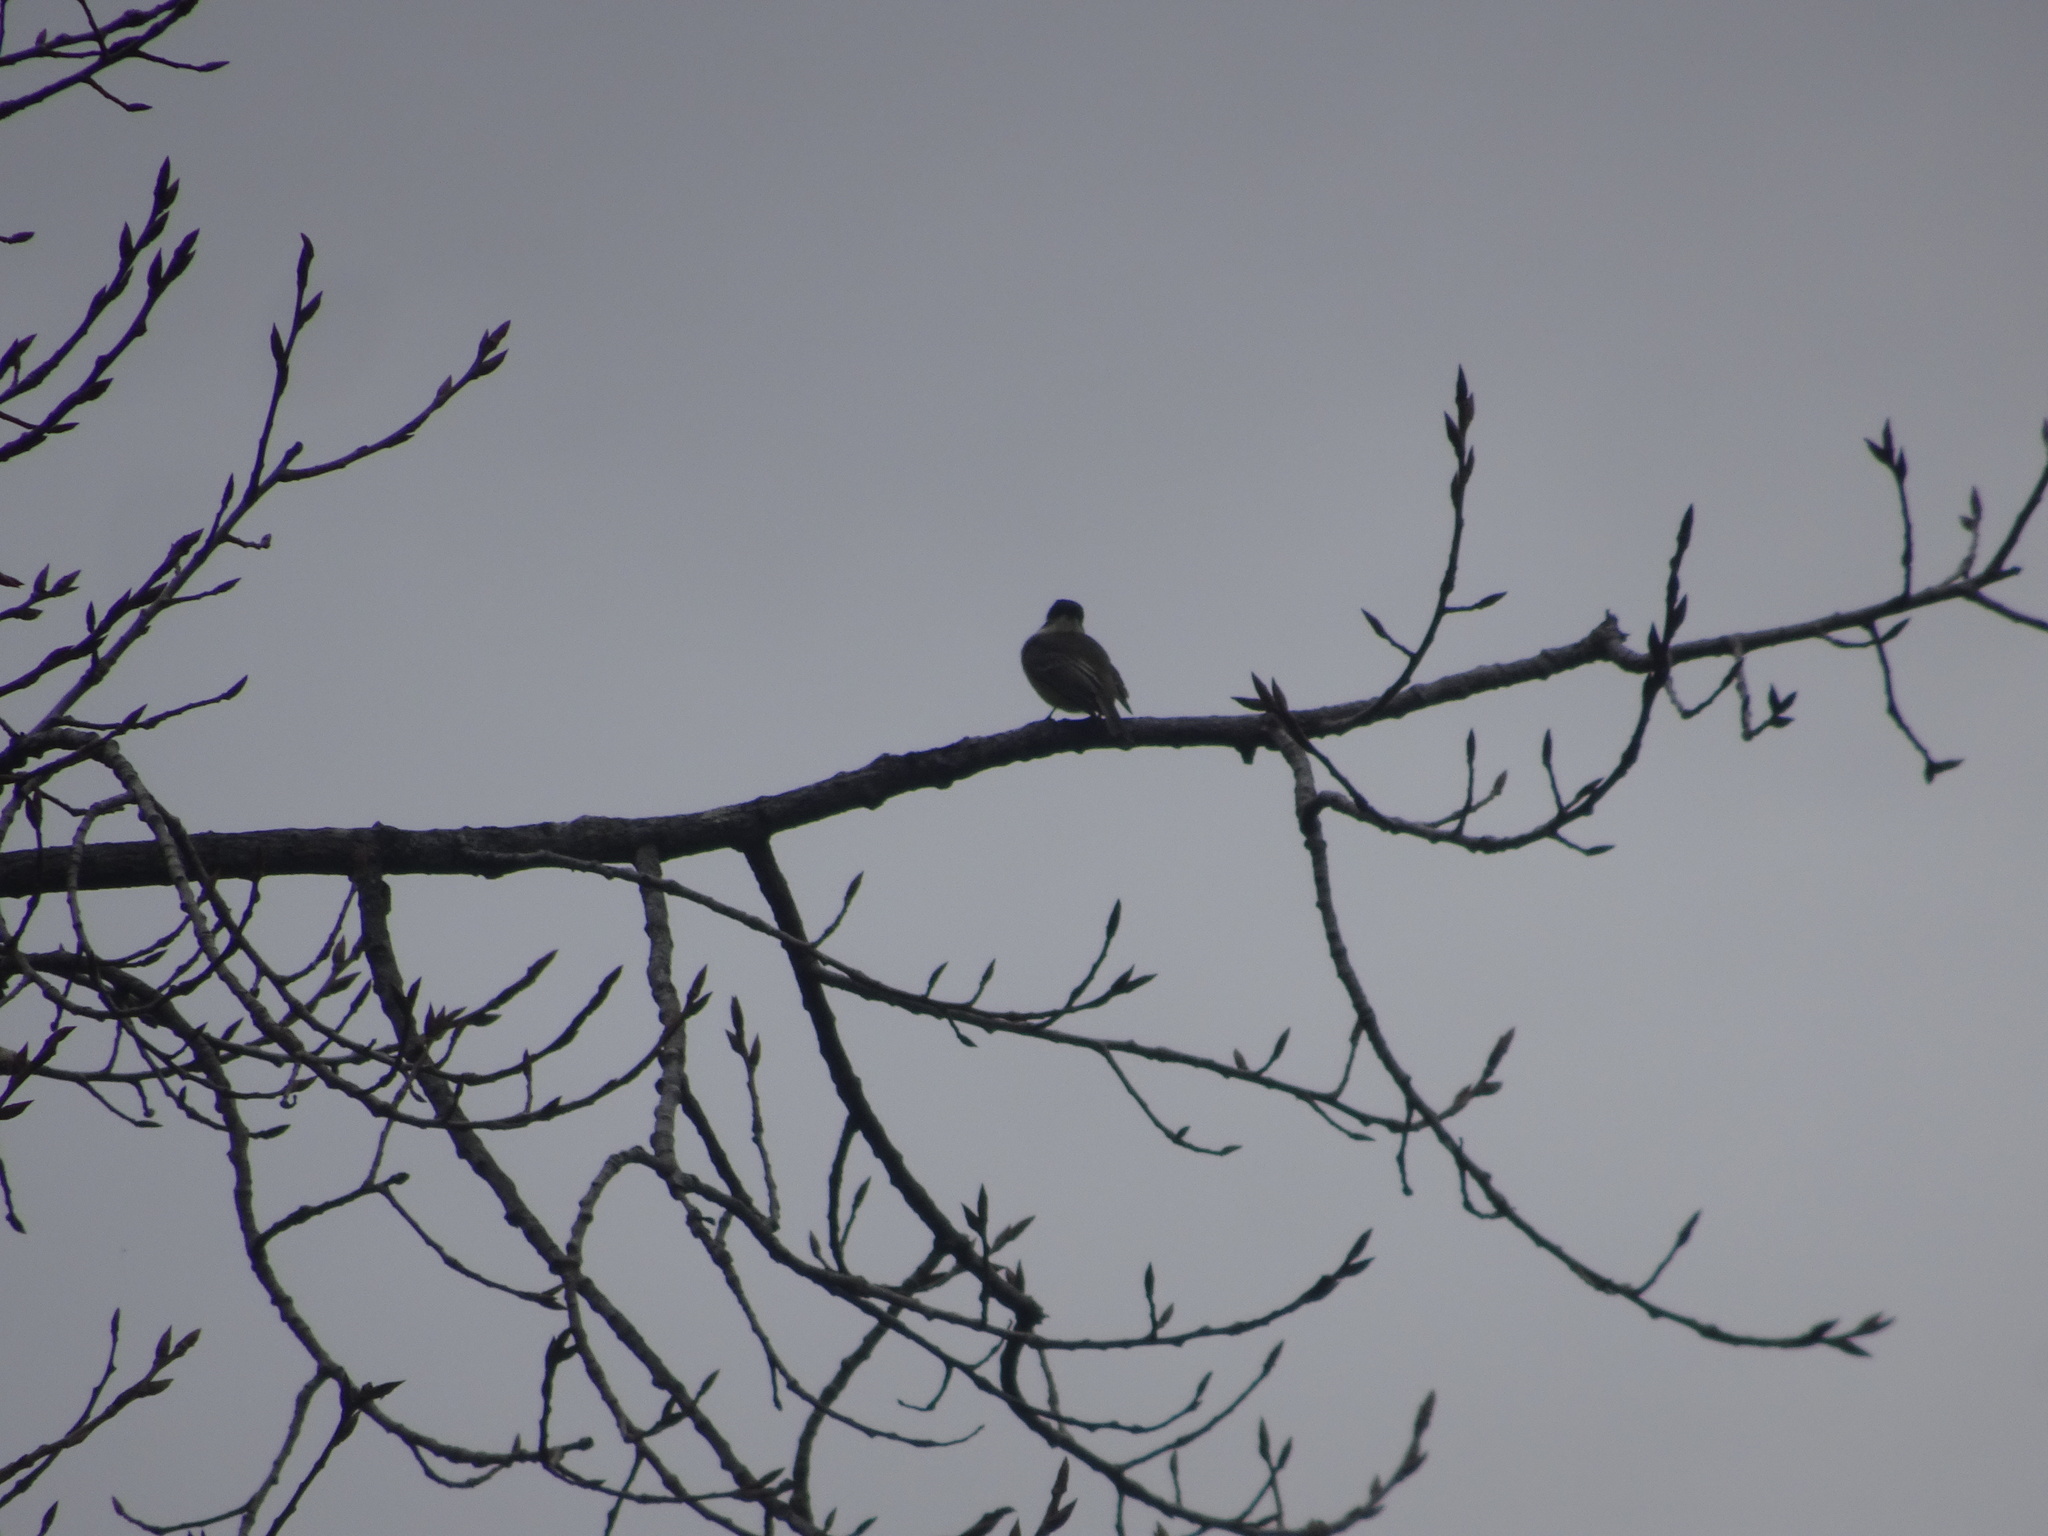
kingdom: Animalia
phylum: Chordata
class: Aves
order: Passeriformes
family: Tyrannidae
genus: Sayornis
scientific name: Sayornis phoebe
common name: Eastern phoebe
